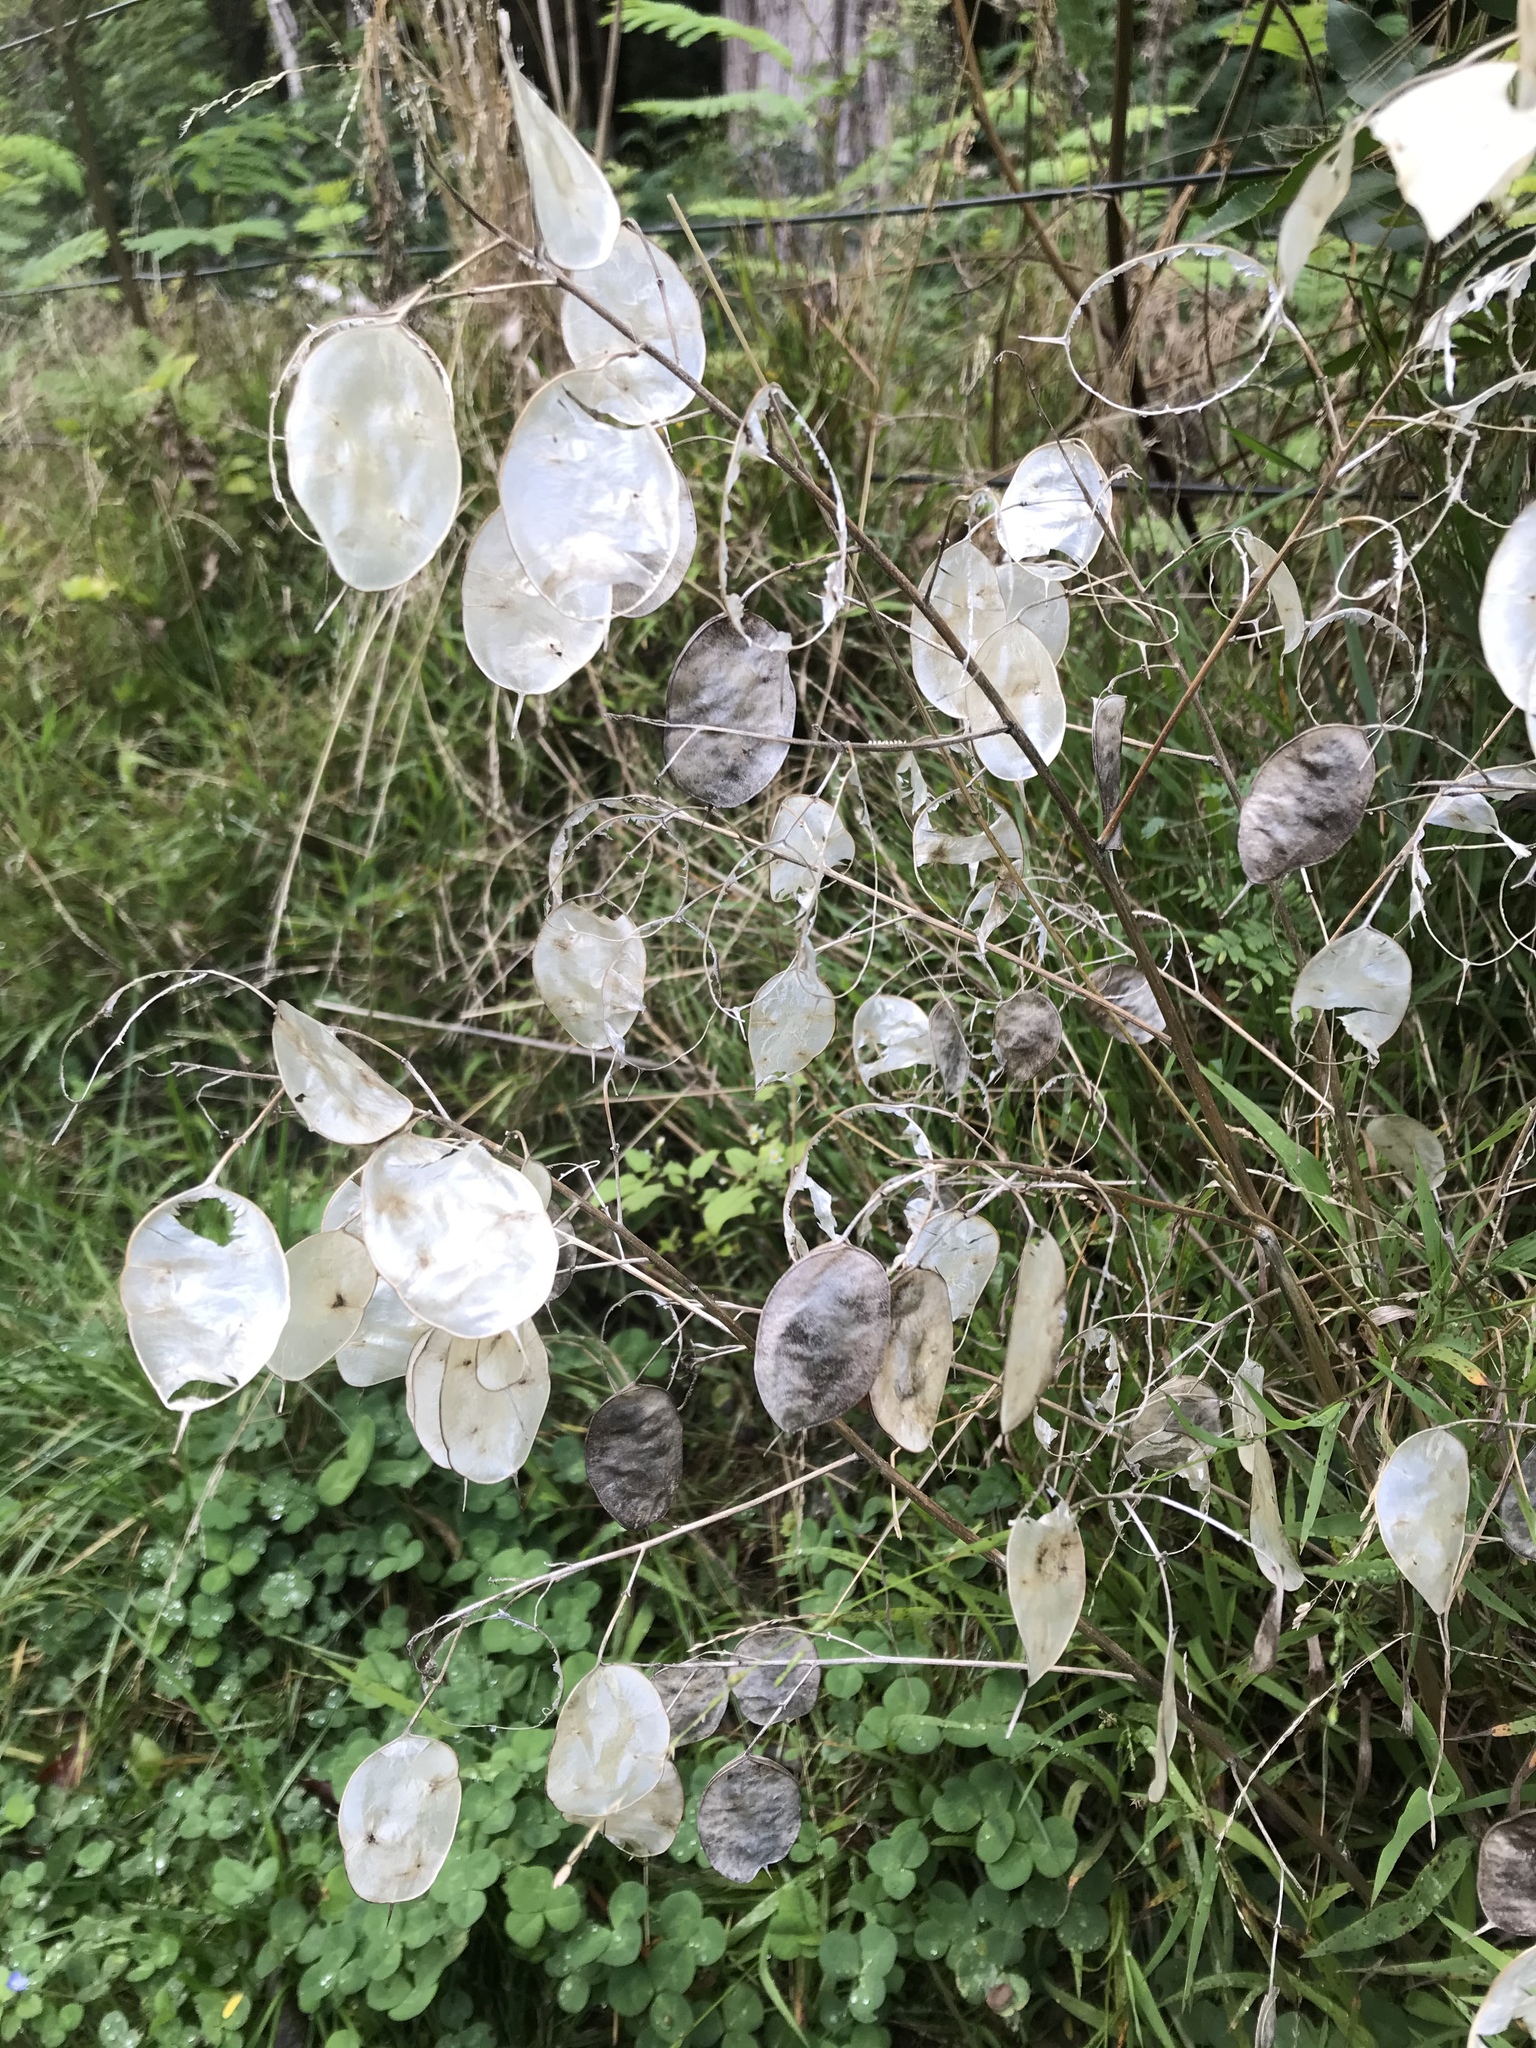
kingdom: Plantae
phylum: Tracheophyta
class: Magnoliopsida
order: Brassicales
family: Brassicaceae
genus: Lunaria
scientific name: Lunaria annua
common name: Honesty
